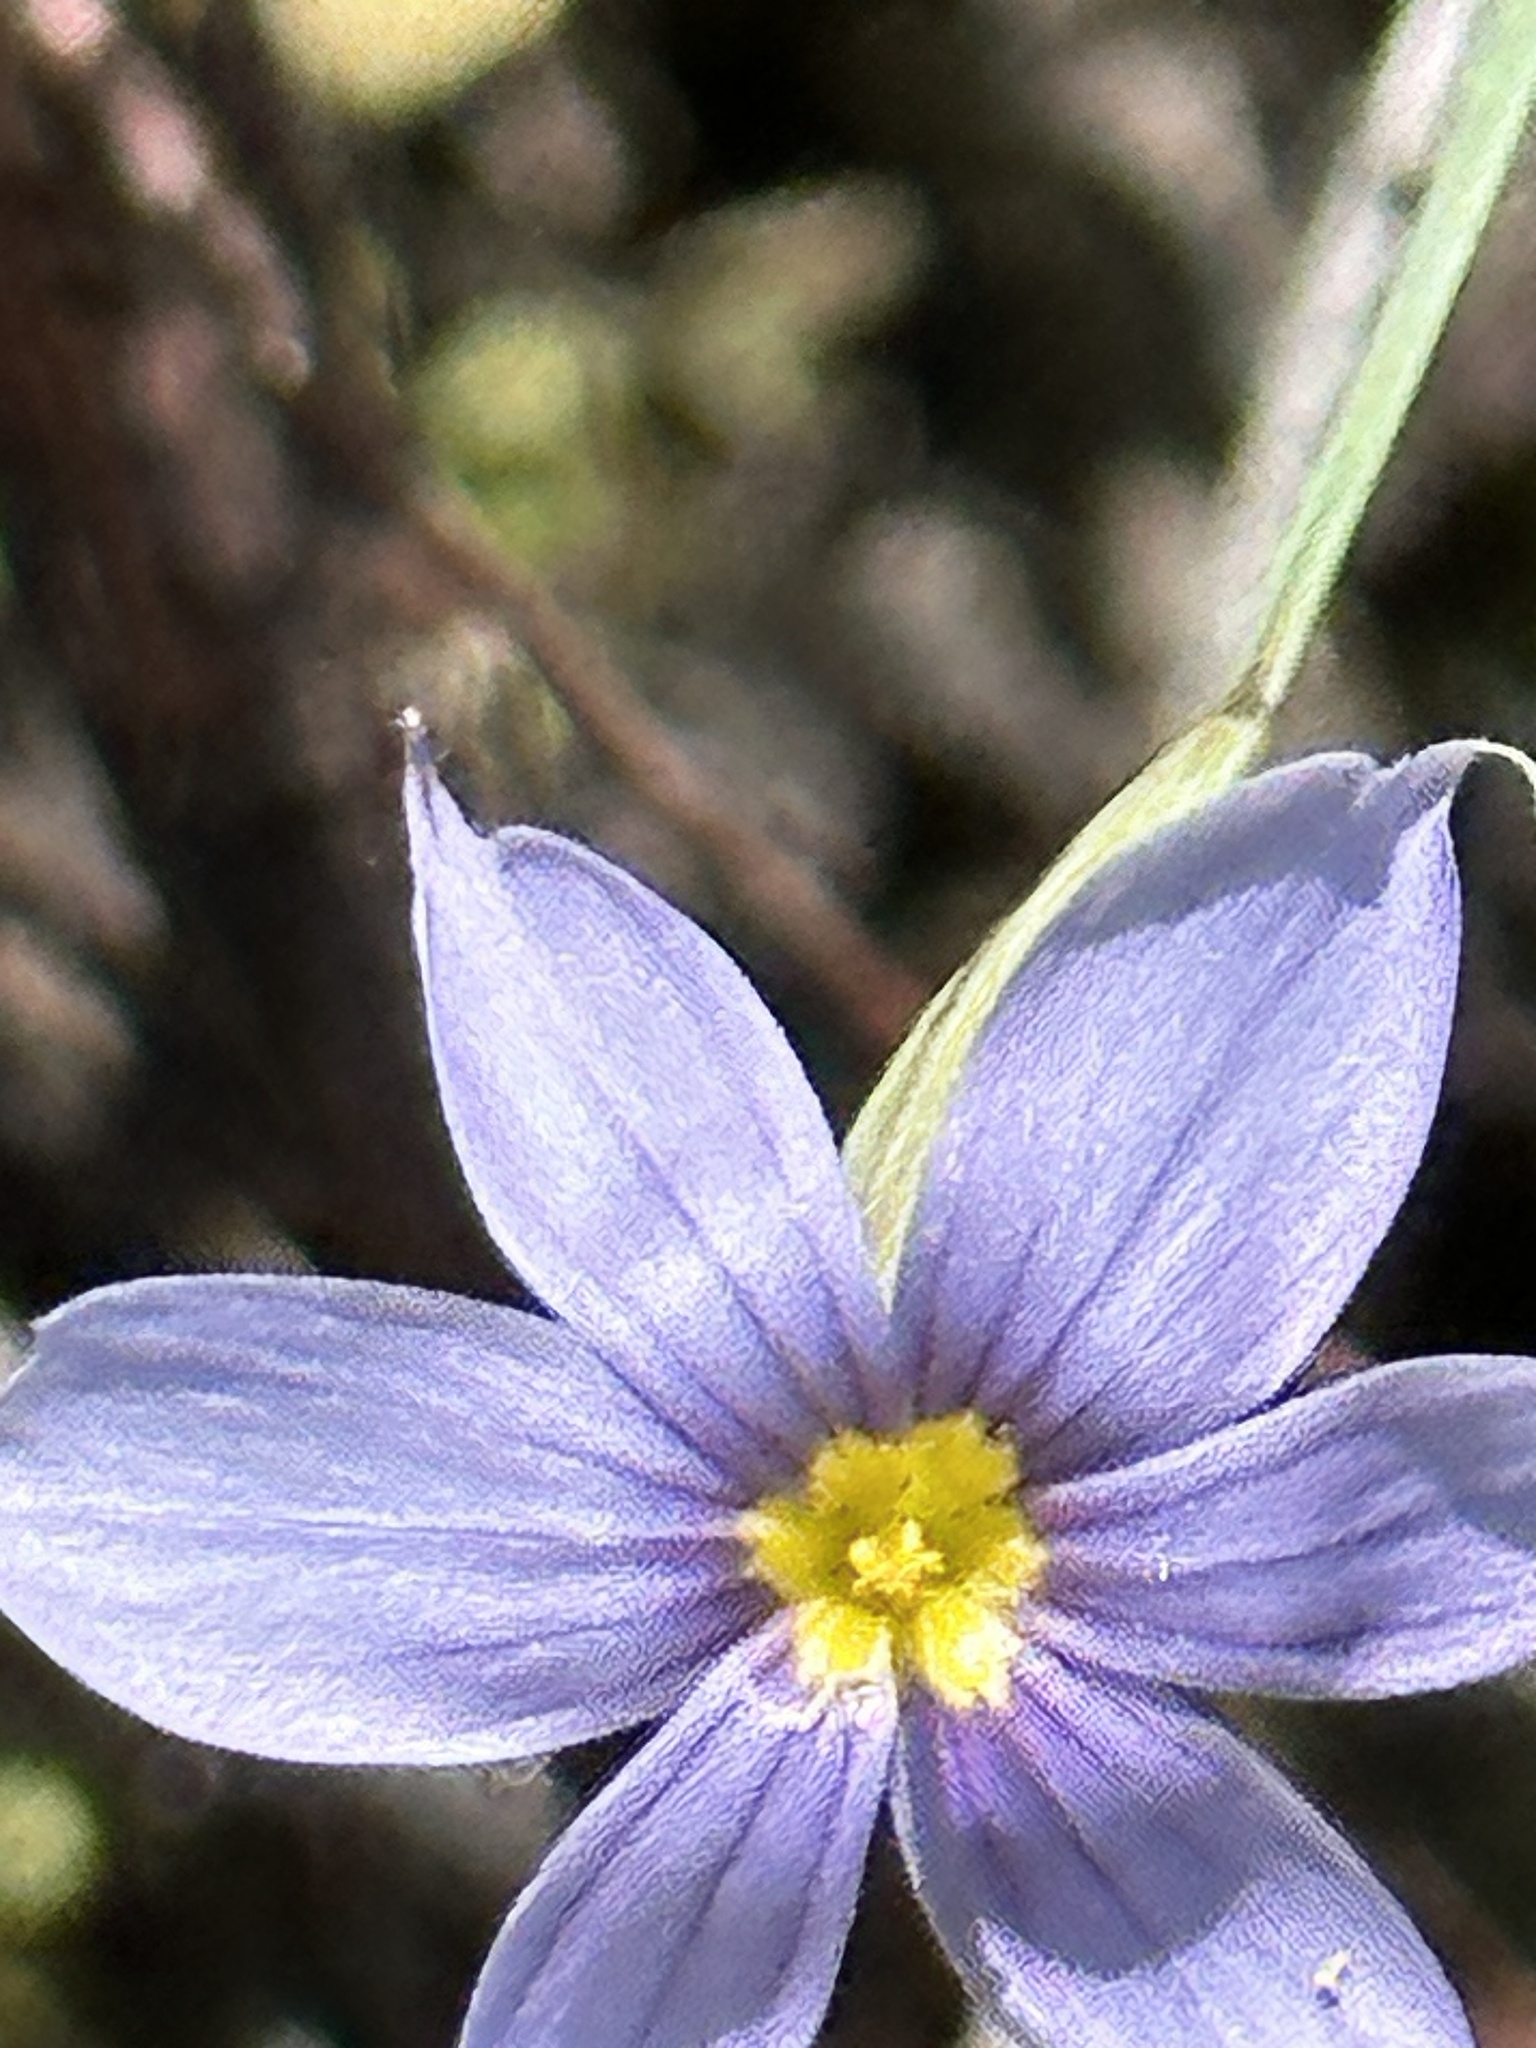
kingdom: Plantae
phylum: Tracheophyta
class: Liliopsida
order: Asparagales
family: Iridaceae
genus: Sisyrinchium
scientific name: Sisyrinchium bellum
